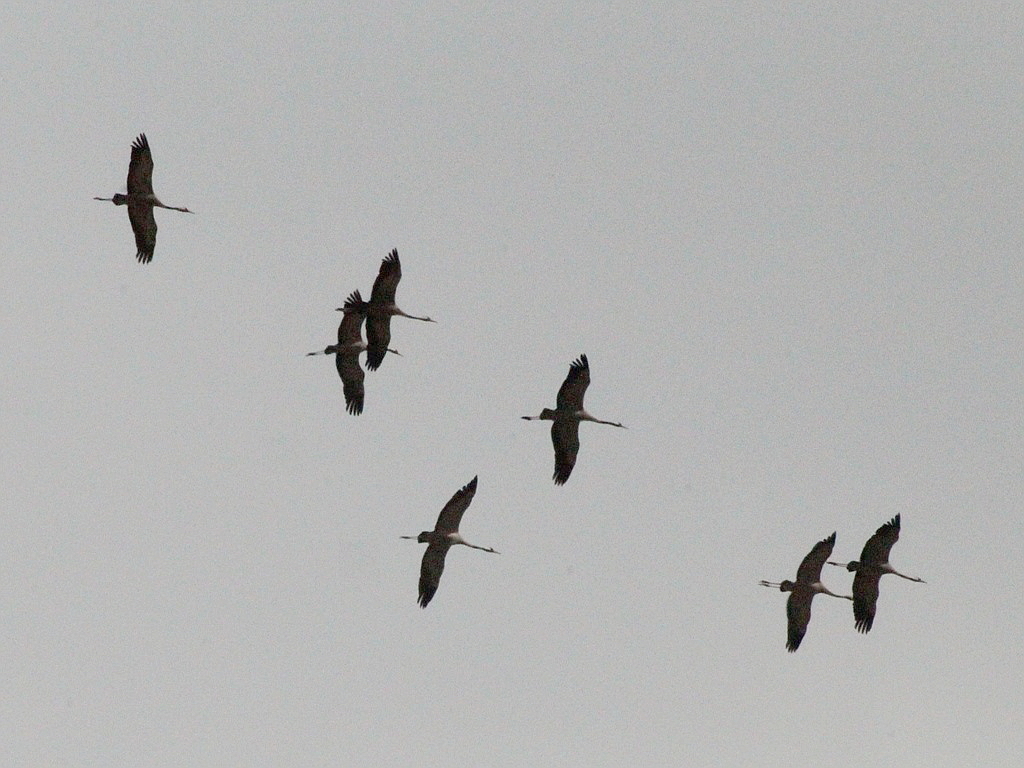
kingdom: Animalia
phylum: Chordata
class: Aves
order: Gruiformes
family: Gruidae
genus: Grus
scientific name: Grus grus
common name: Common crane
